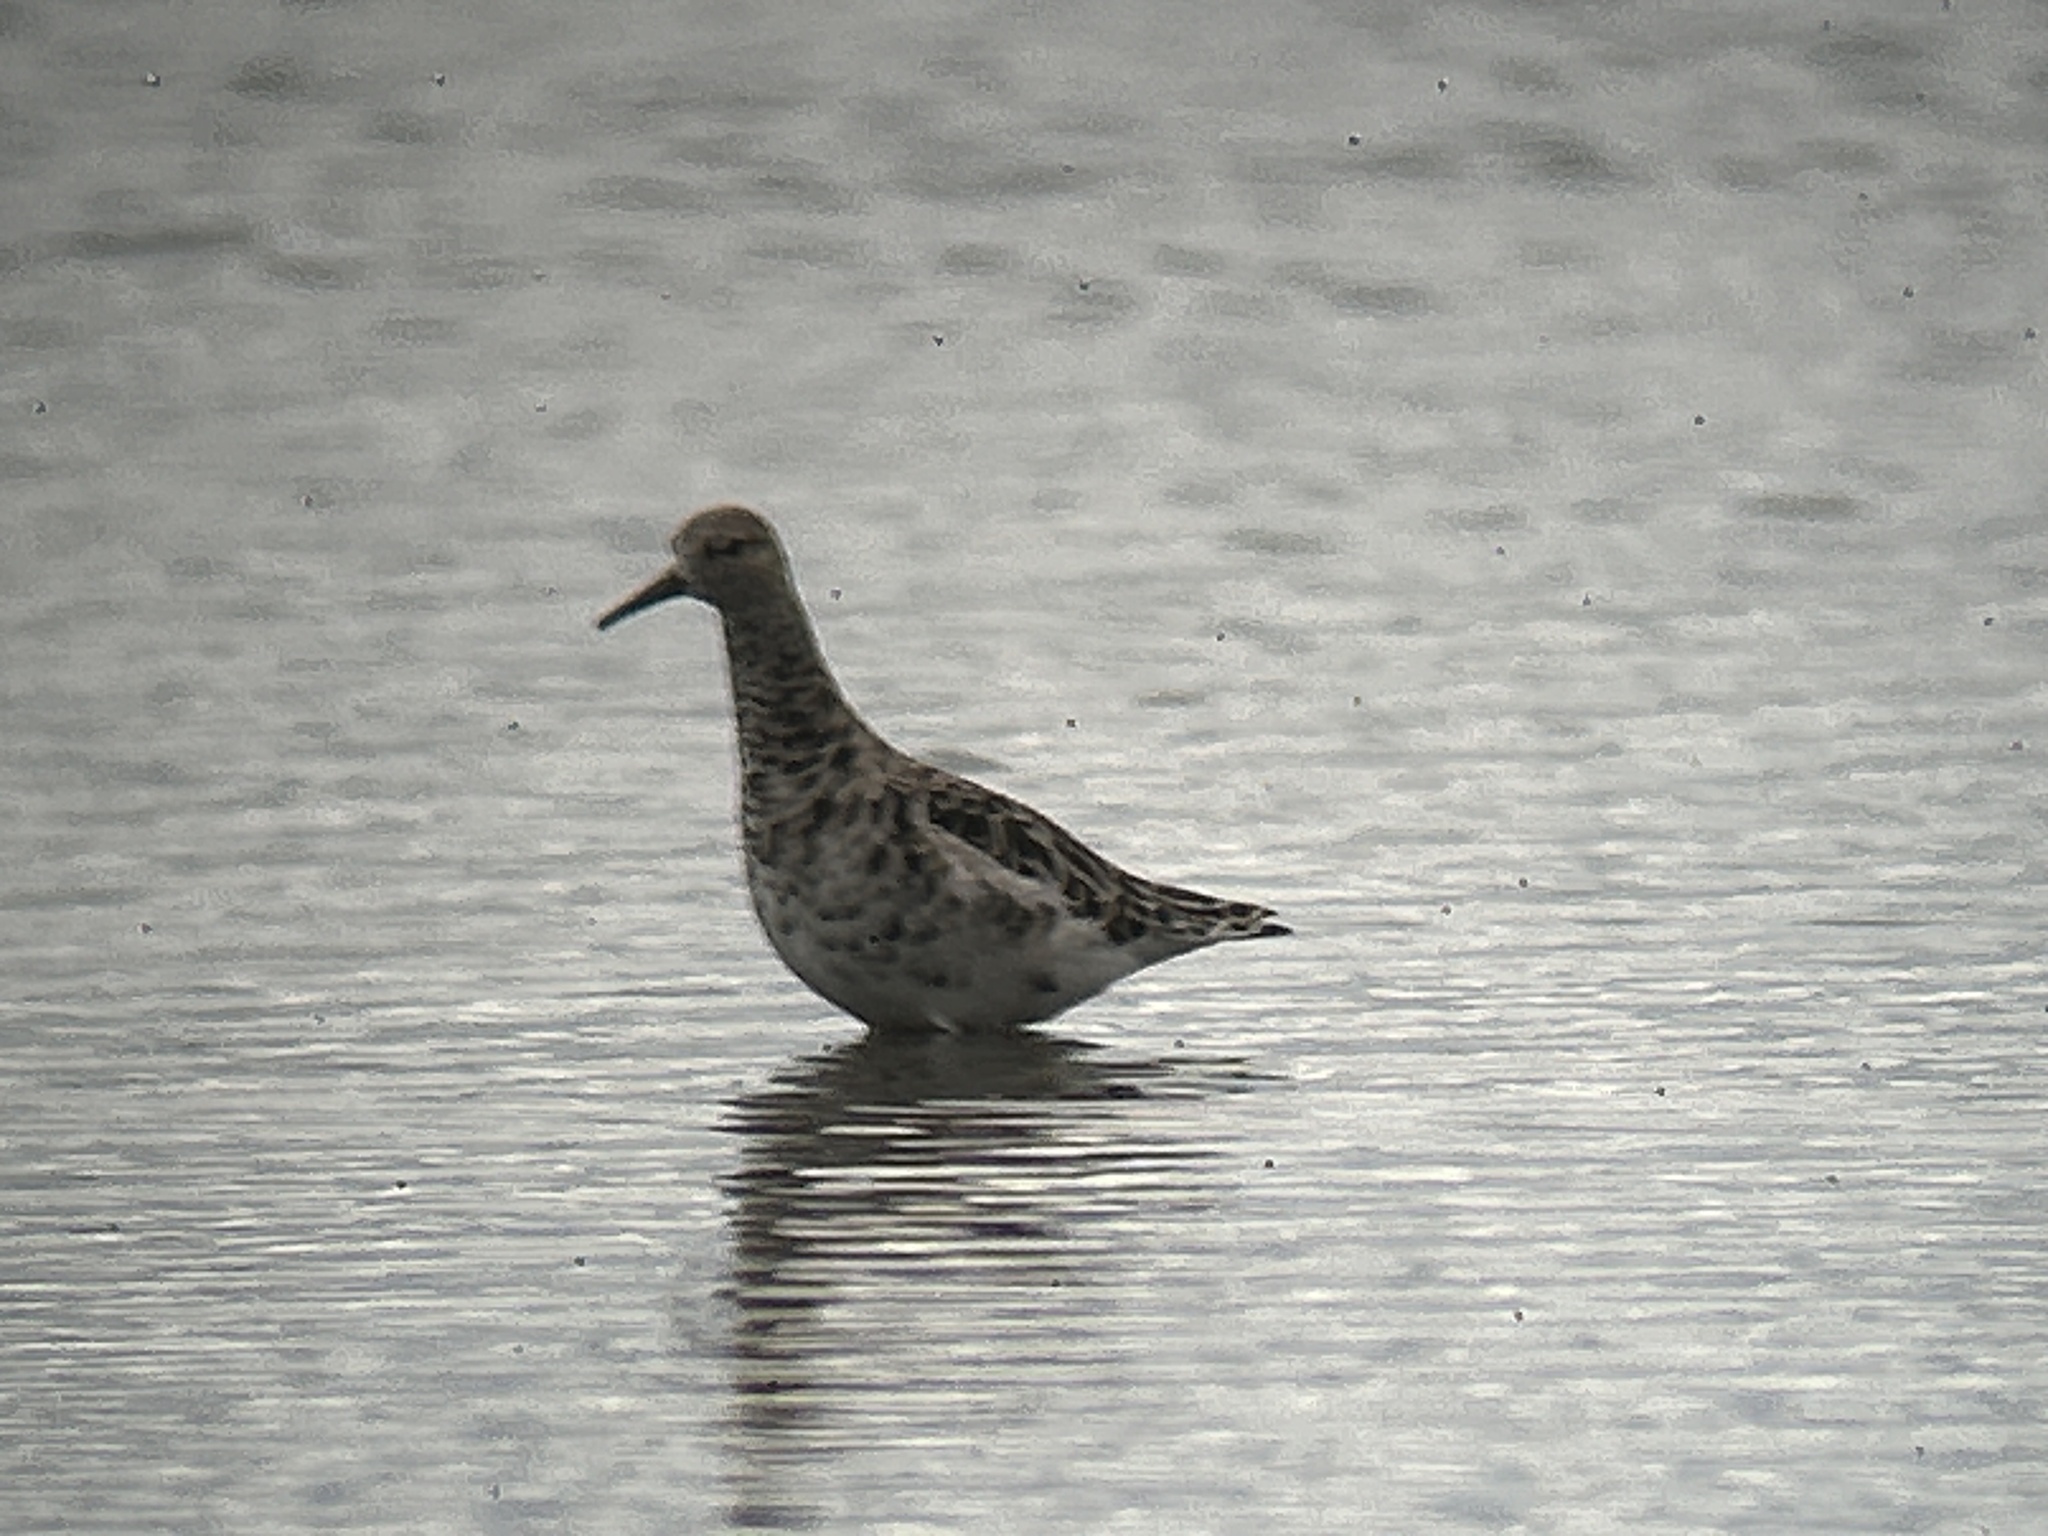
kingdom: Animalia
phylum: Chordata
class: Aves
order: Charadriiformes
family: Scolopacidae
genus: Calidris
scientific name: Calidris pugnax
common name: Ruff
